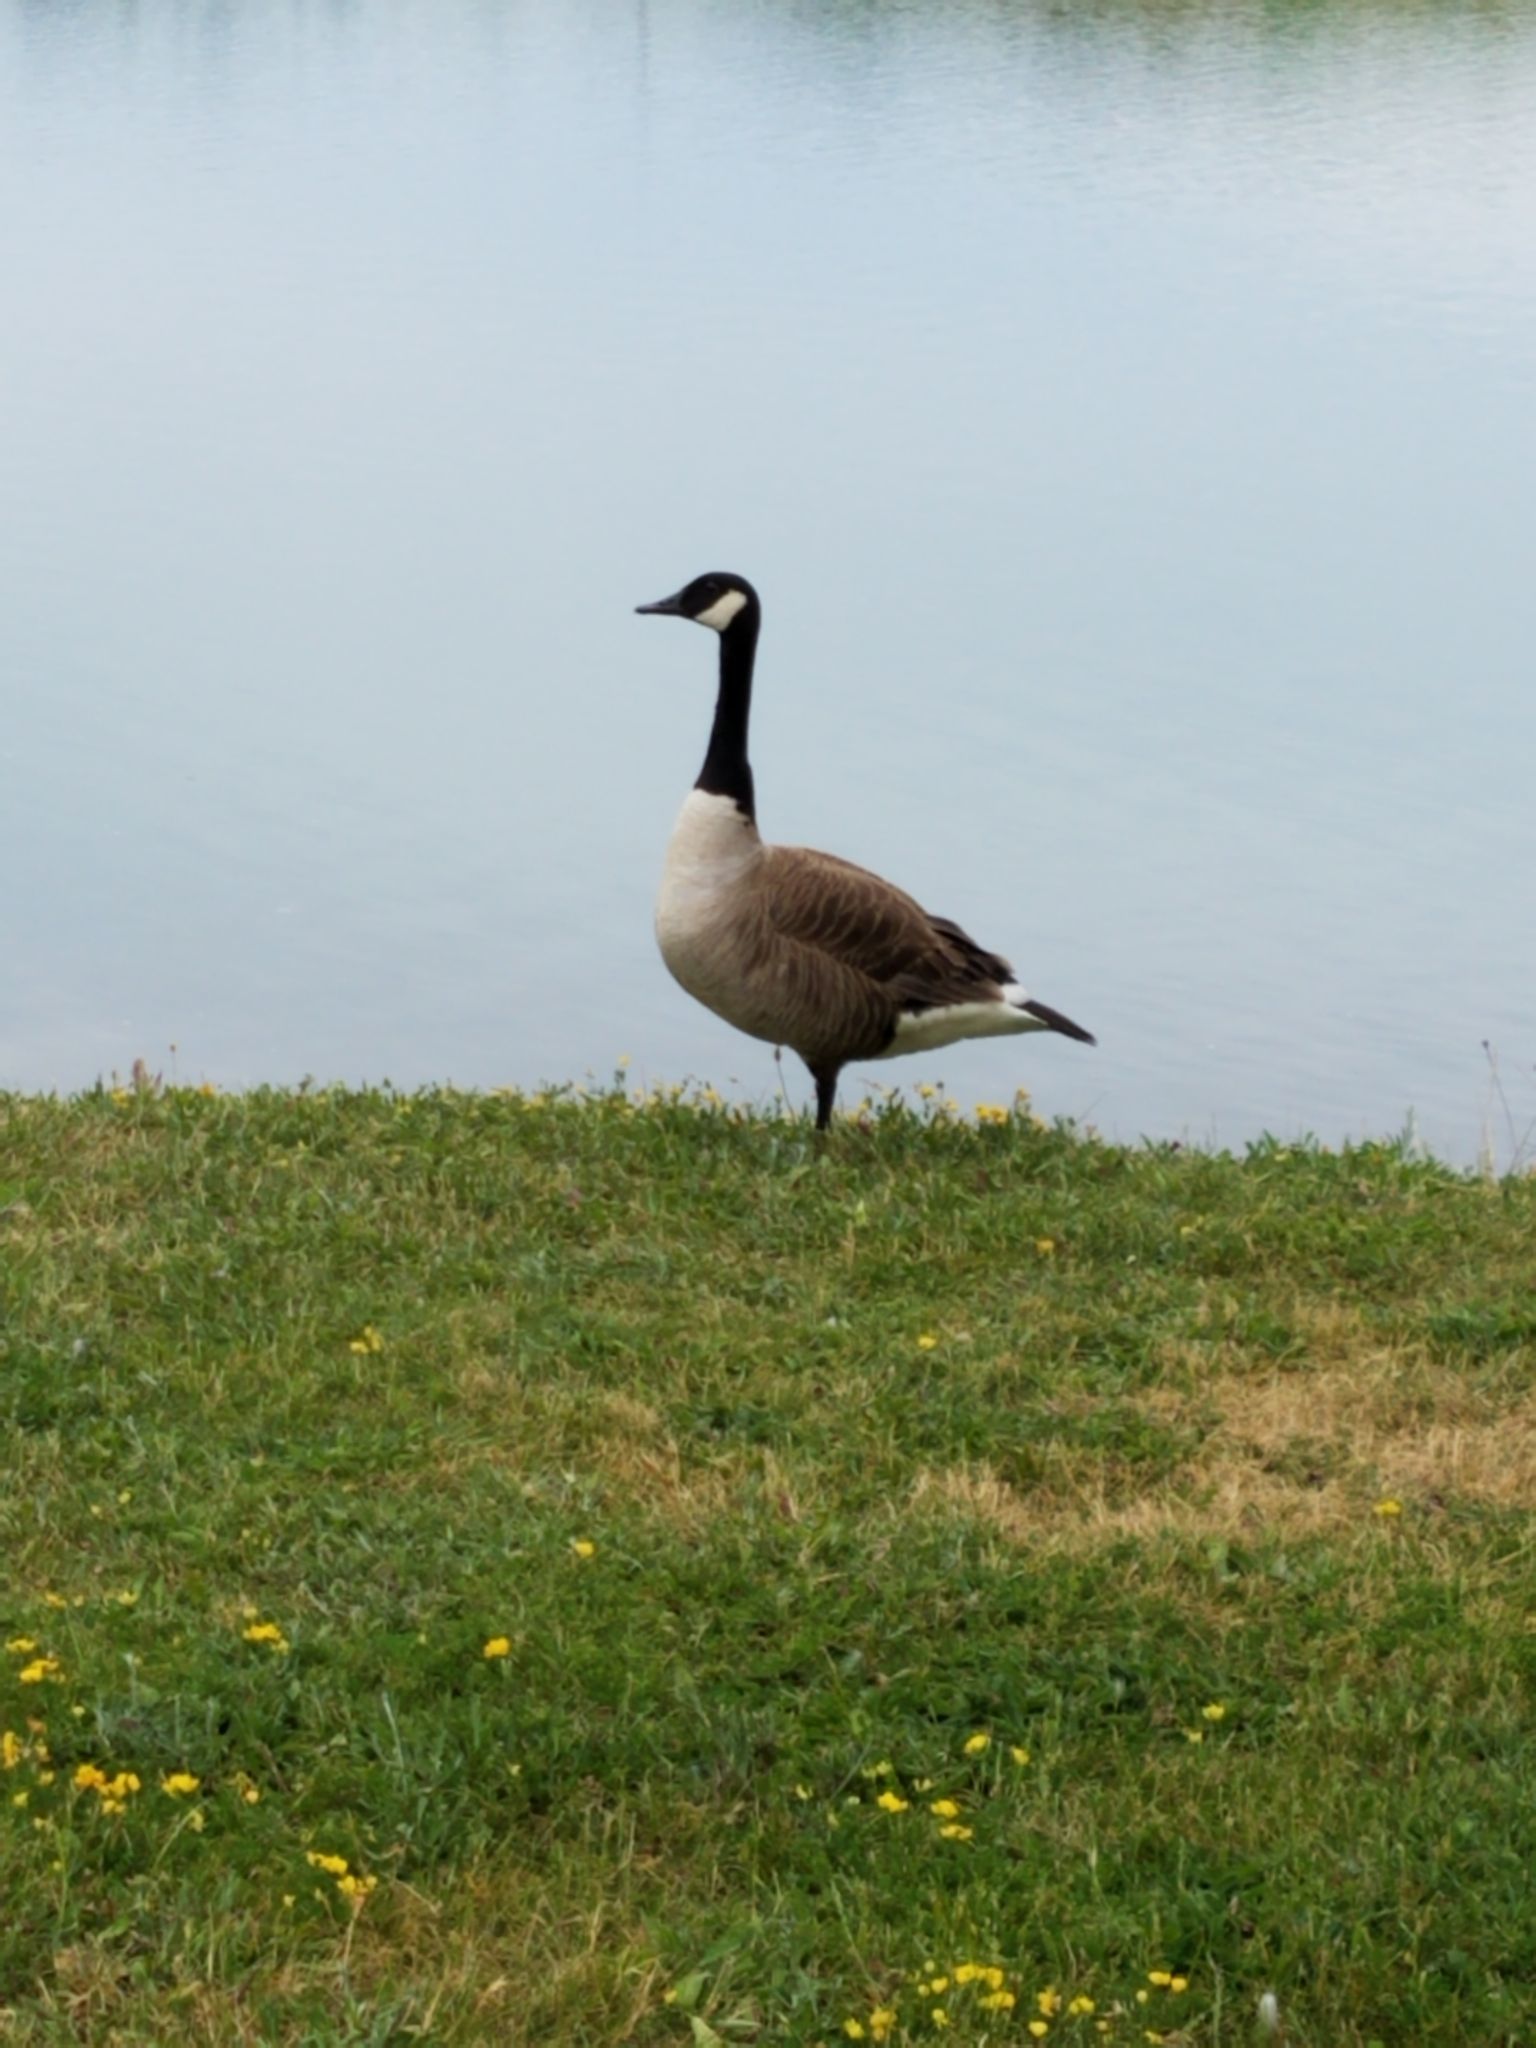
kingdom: Animalia
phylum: Chordata
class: Aves
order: Anseriformes
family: Anatidae
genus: Branta
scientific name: Branta canadensis
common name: Canada goose
